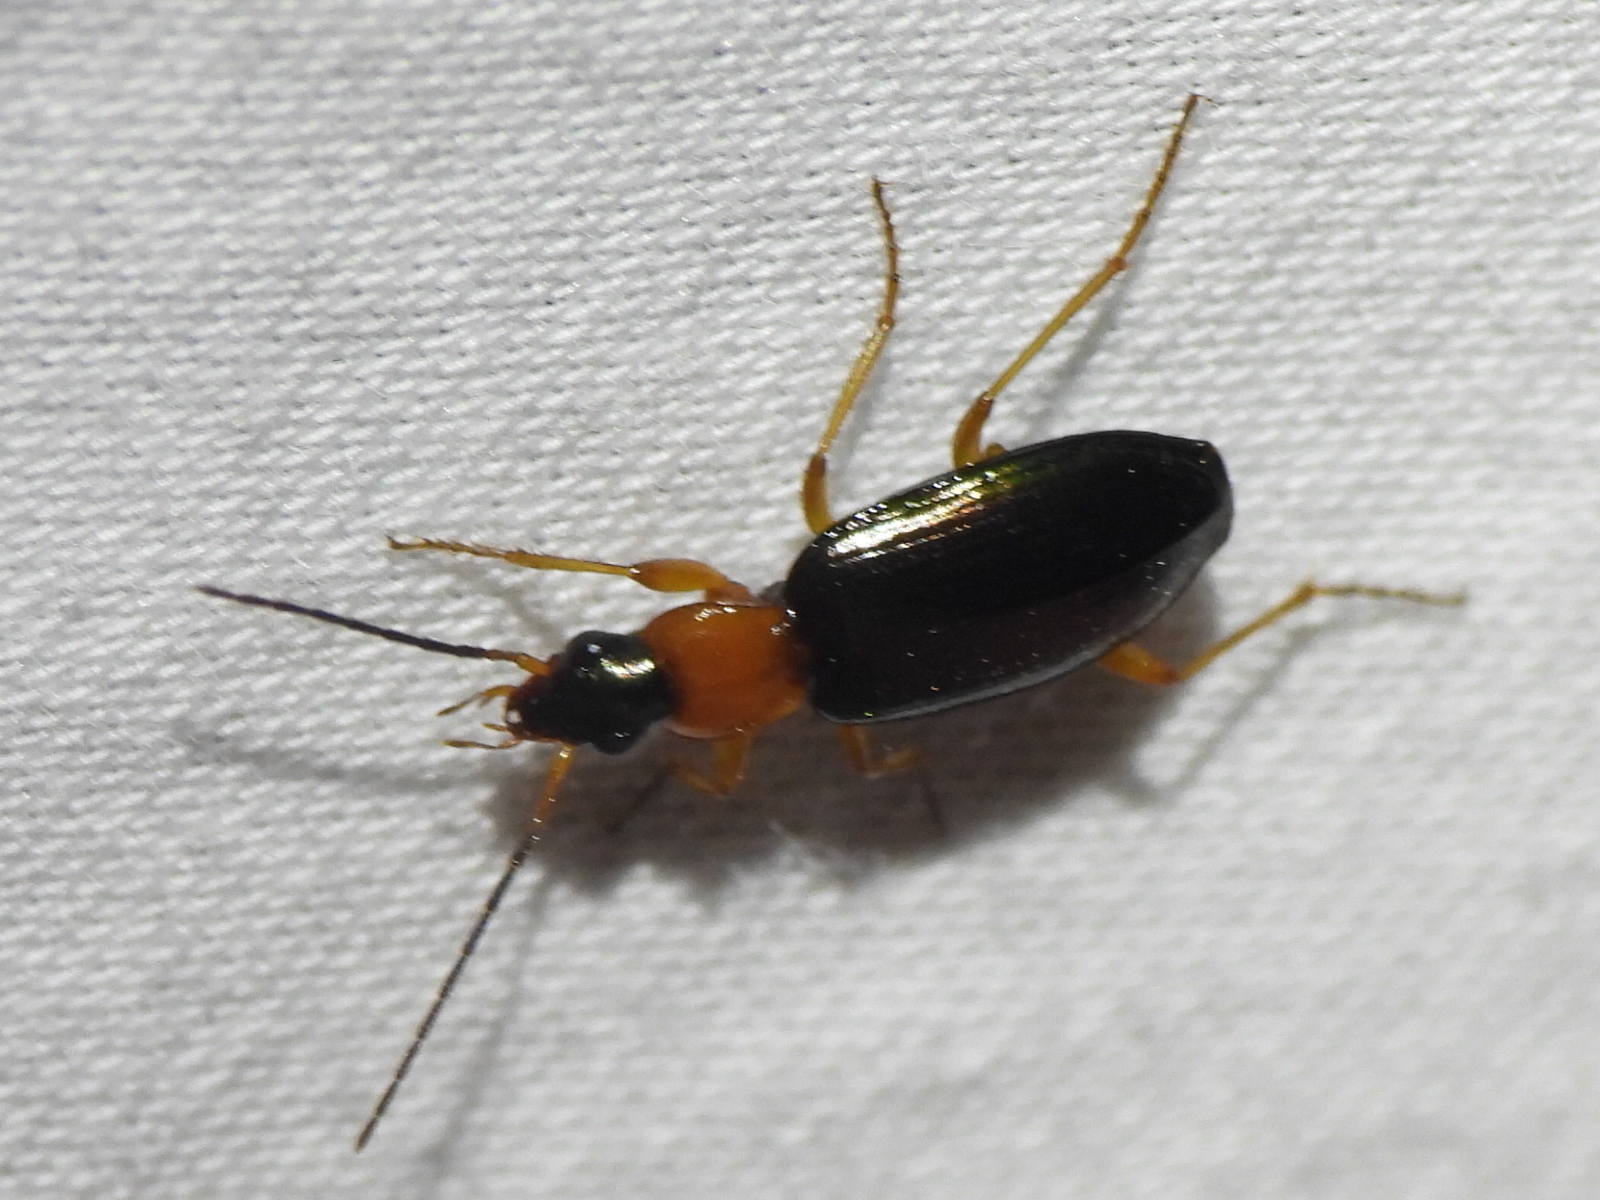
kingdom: Animalia
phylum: Arthropoda
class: Insecta
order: Coleoptera
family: Carabidae
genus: Agonum
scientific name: Agonum decorum
